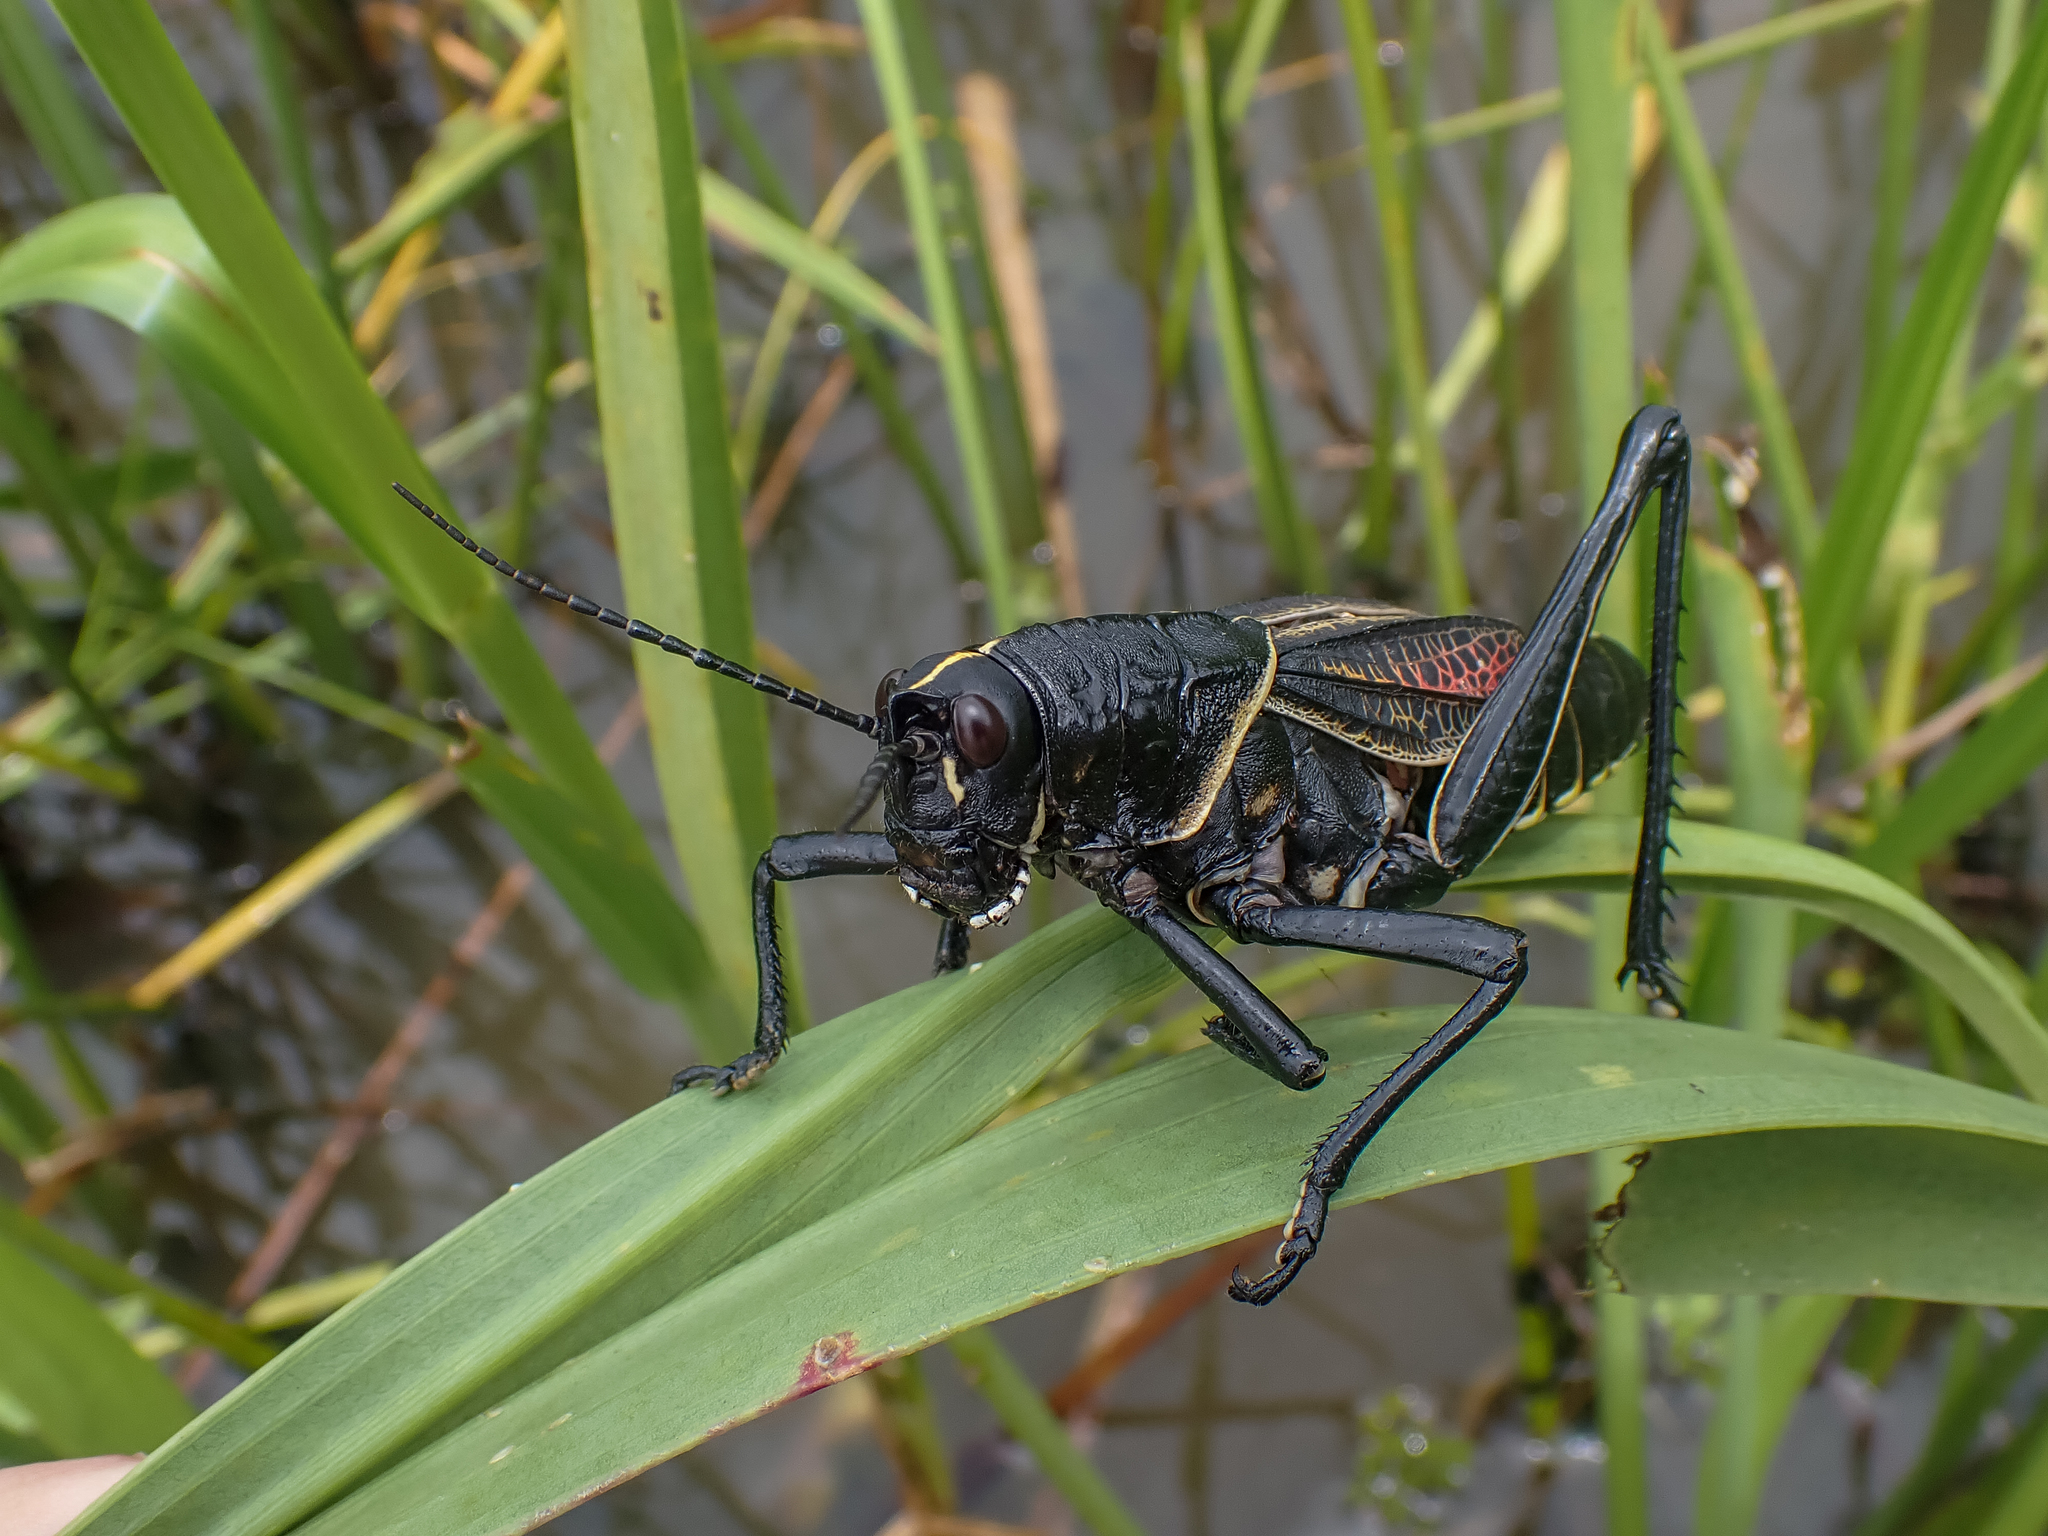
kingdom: Animalia
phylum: Arthropoda
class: Insecta
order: Orthoptera
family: Romaleidae
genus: Romalea
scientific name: Romalea microptera
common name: Eastern lubber grasshopper
